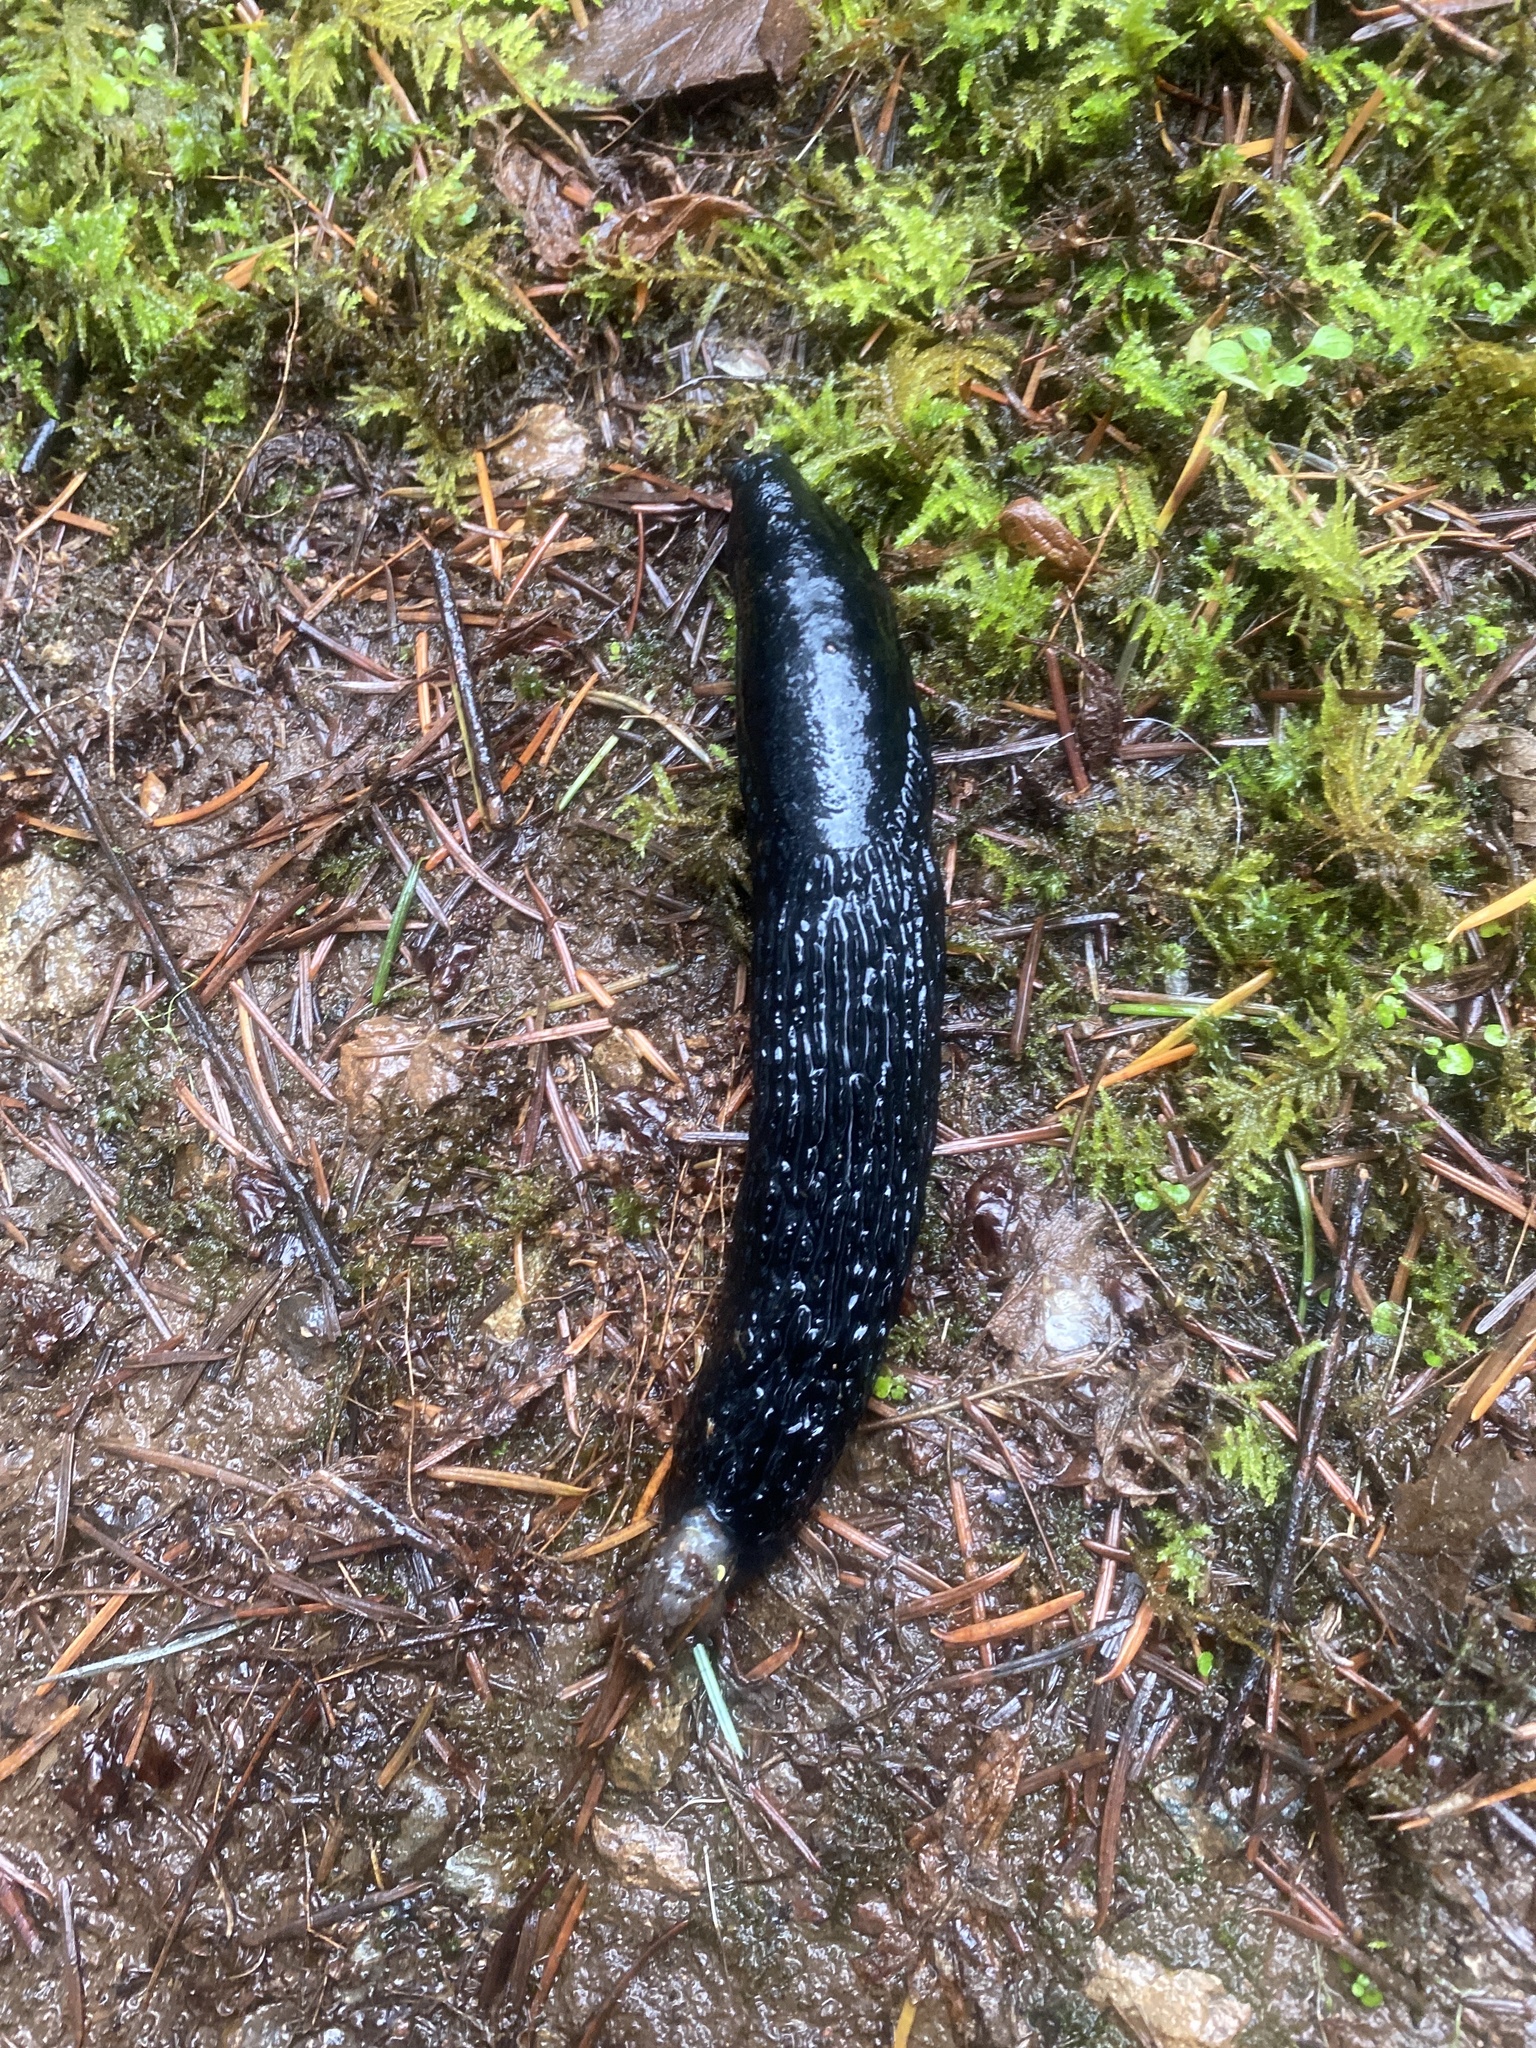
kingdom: Animalia
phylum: Mollusca
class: Gastropoda
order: Stylommatophora
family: Arionidae
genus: Arion
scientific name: Arion rufus
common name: Chocolate arion
